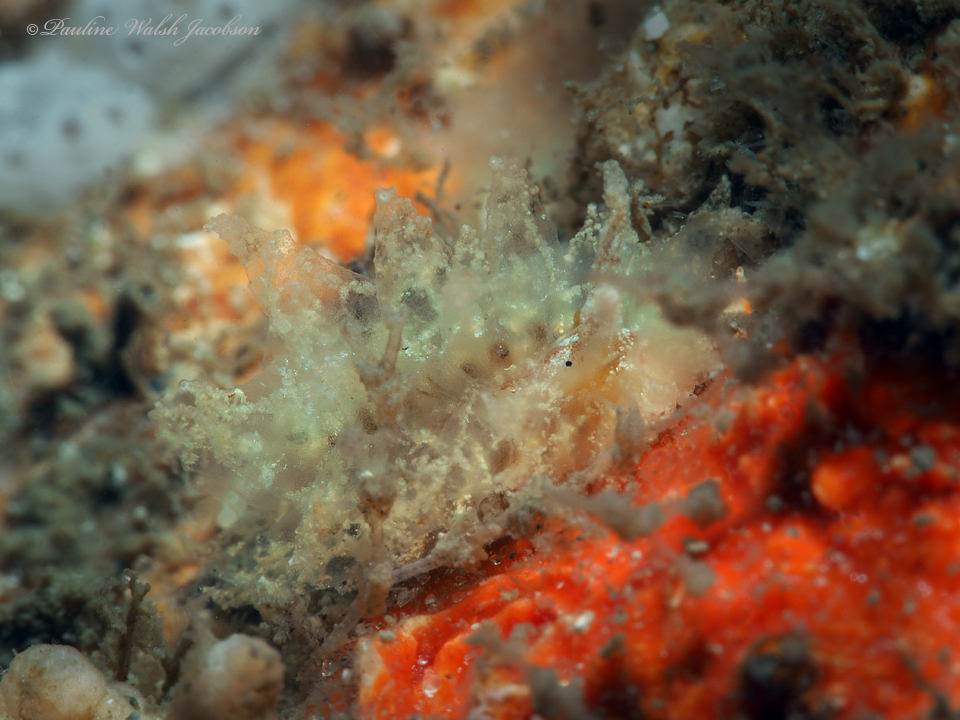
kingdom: Animalia
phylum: Mollusca
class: Gastropoda
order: Nudibranchia
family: Janolidae
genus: Janolus
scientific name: Janolus comis
